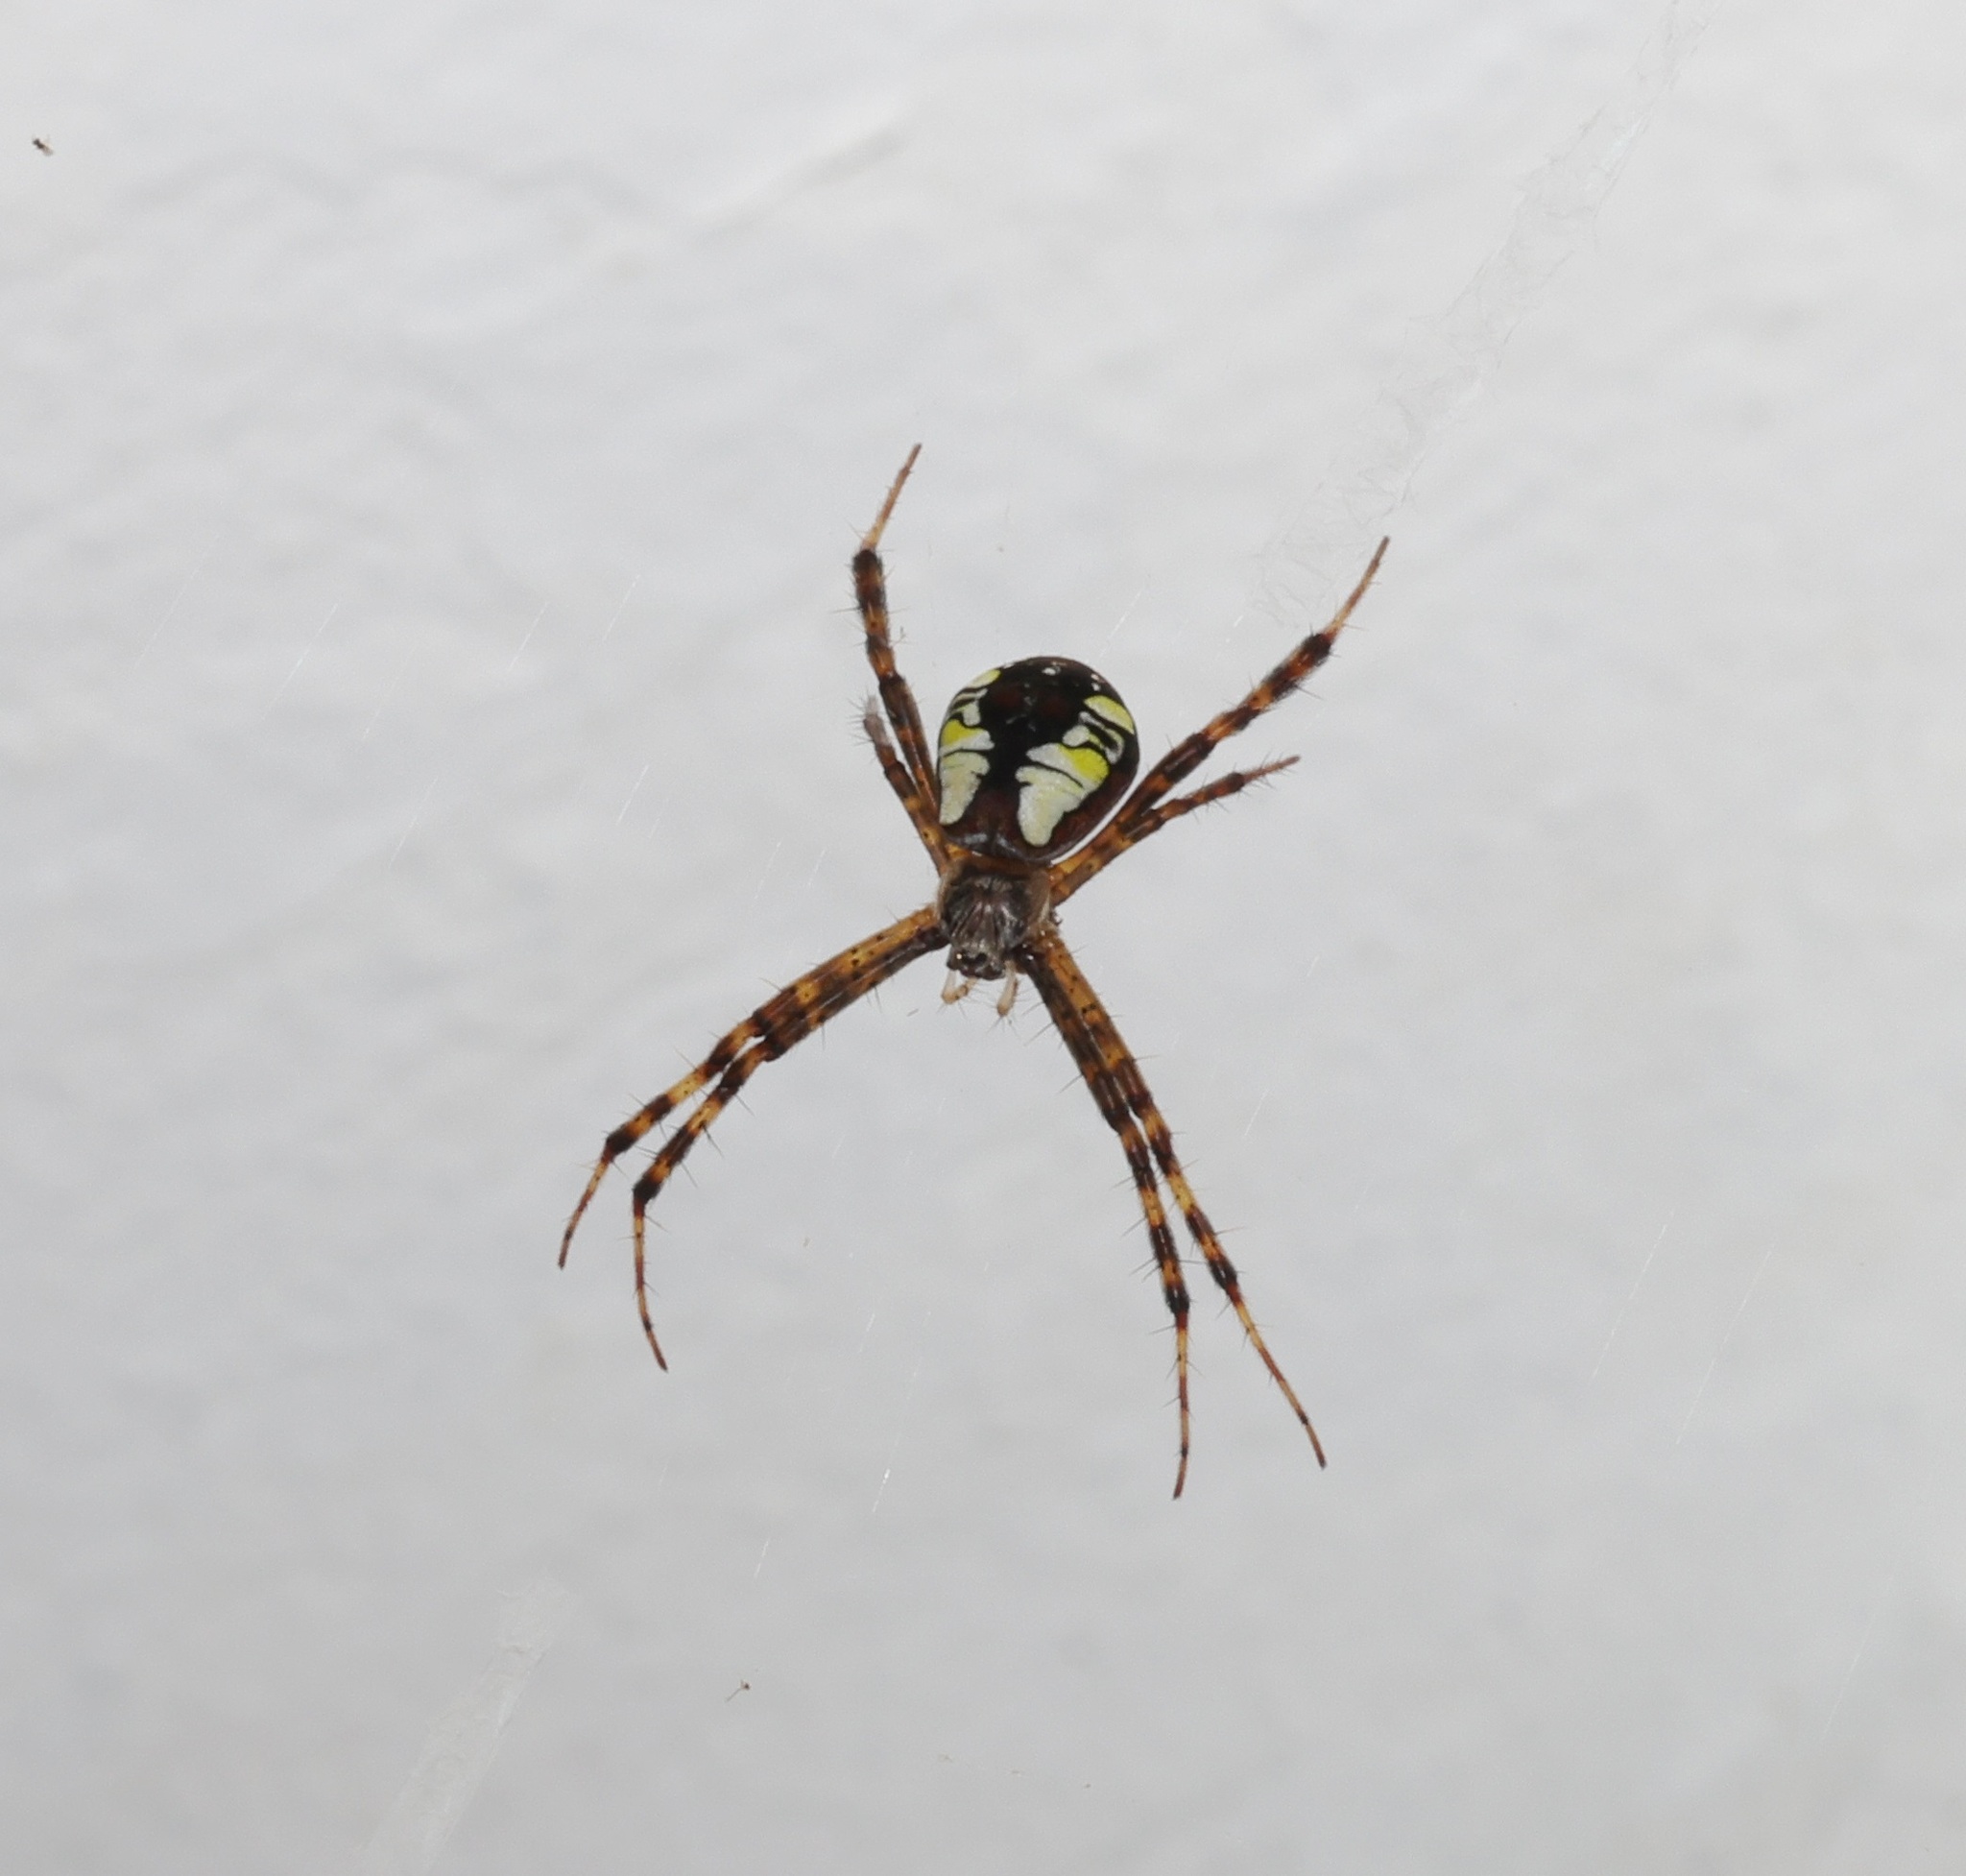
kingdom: Animalia
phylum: Arthropoda
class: Arachnida
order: Araneae
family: Araneidae
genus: Argiope
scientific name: Argiope perforata
